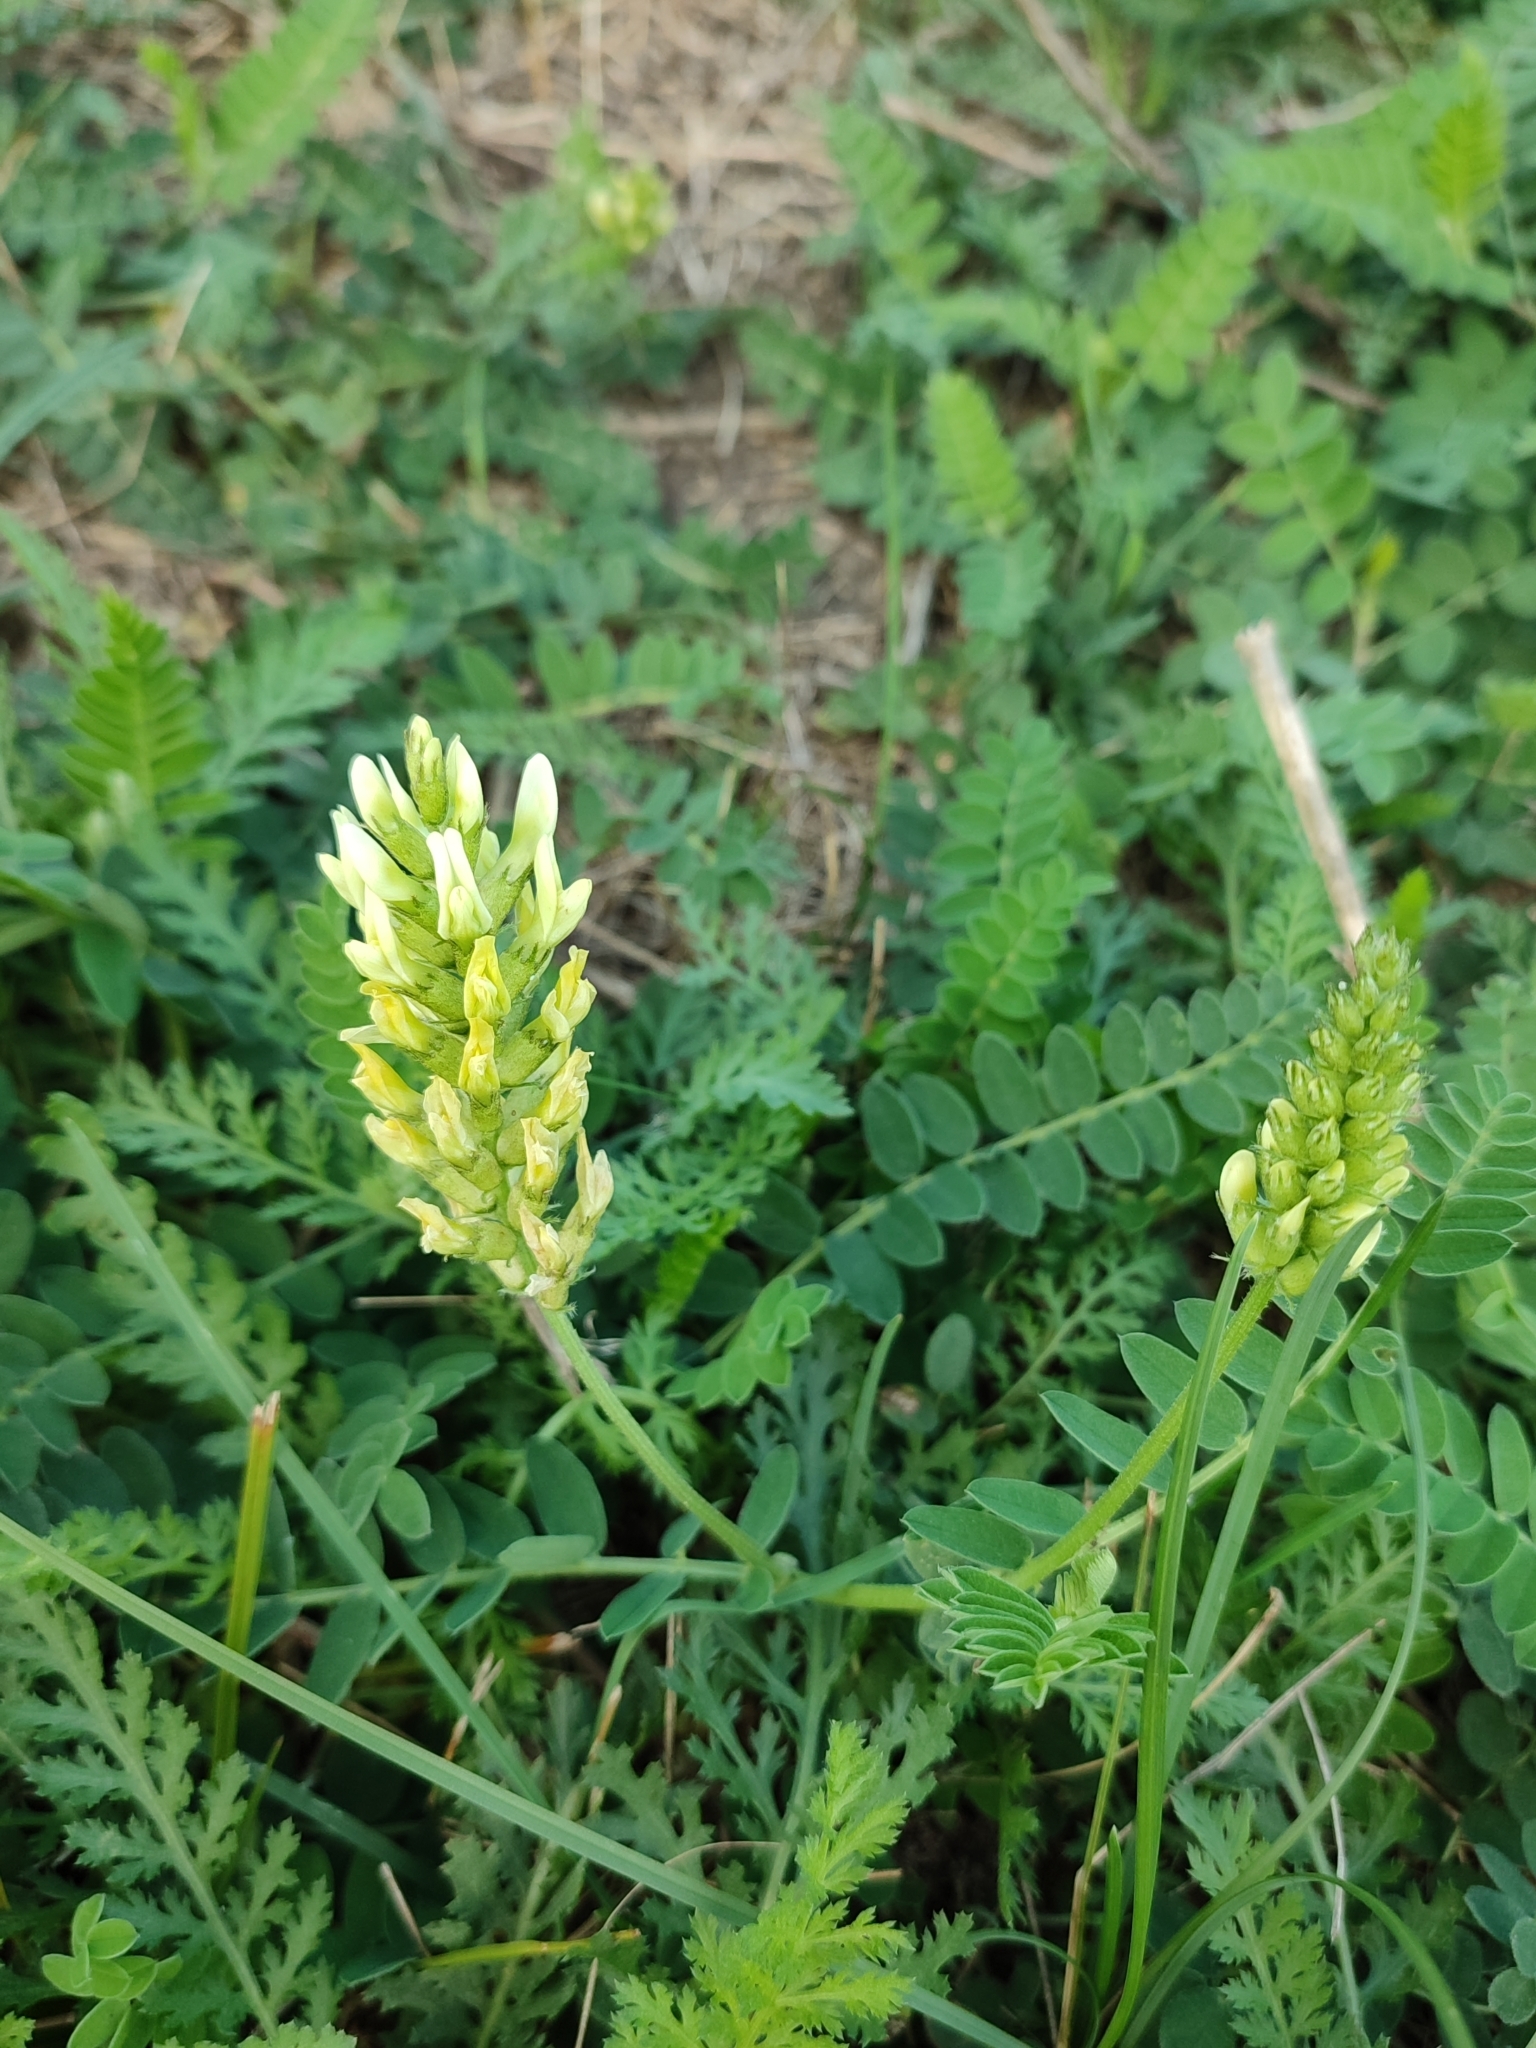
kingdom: Plantae
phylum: Tracheophyta
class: Magnoliopsida
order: Fabales
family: Fabaceae
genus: Astragalus
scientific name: Astragalus cicer
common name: Chick-pea milk-vetch
